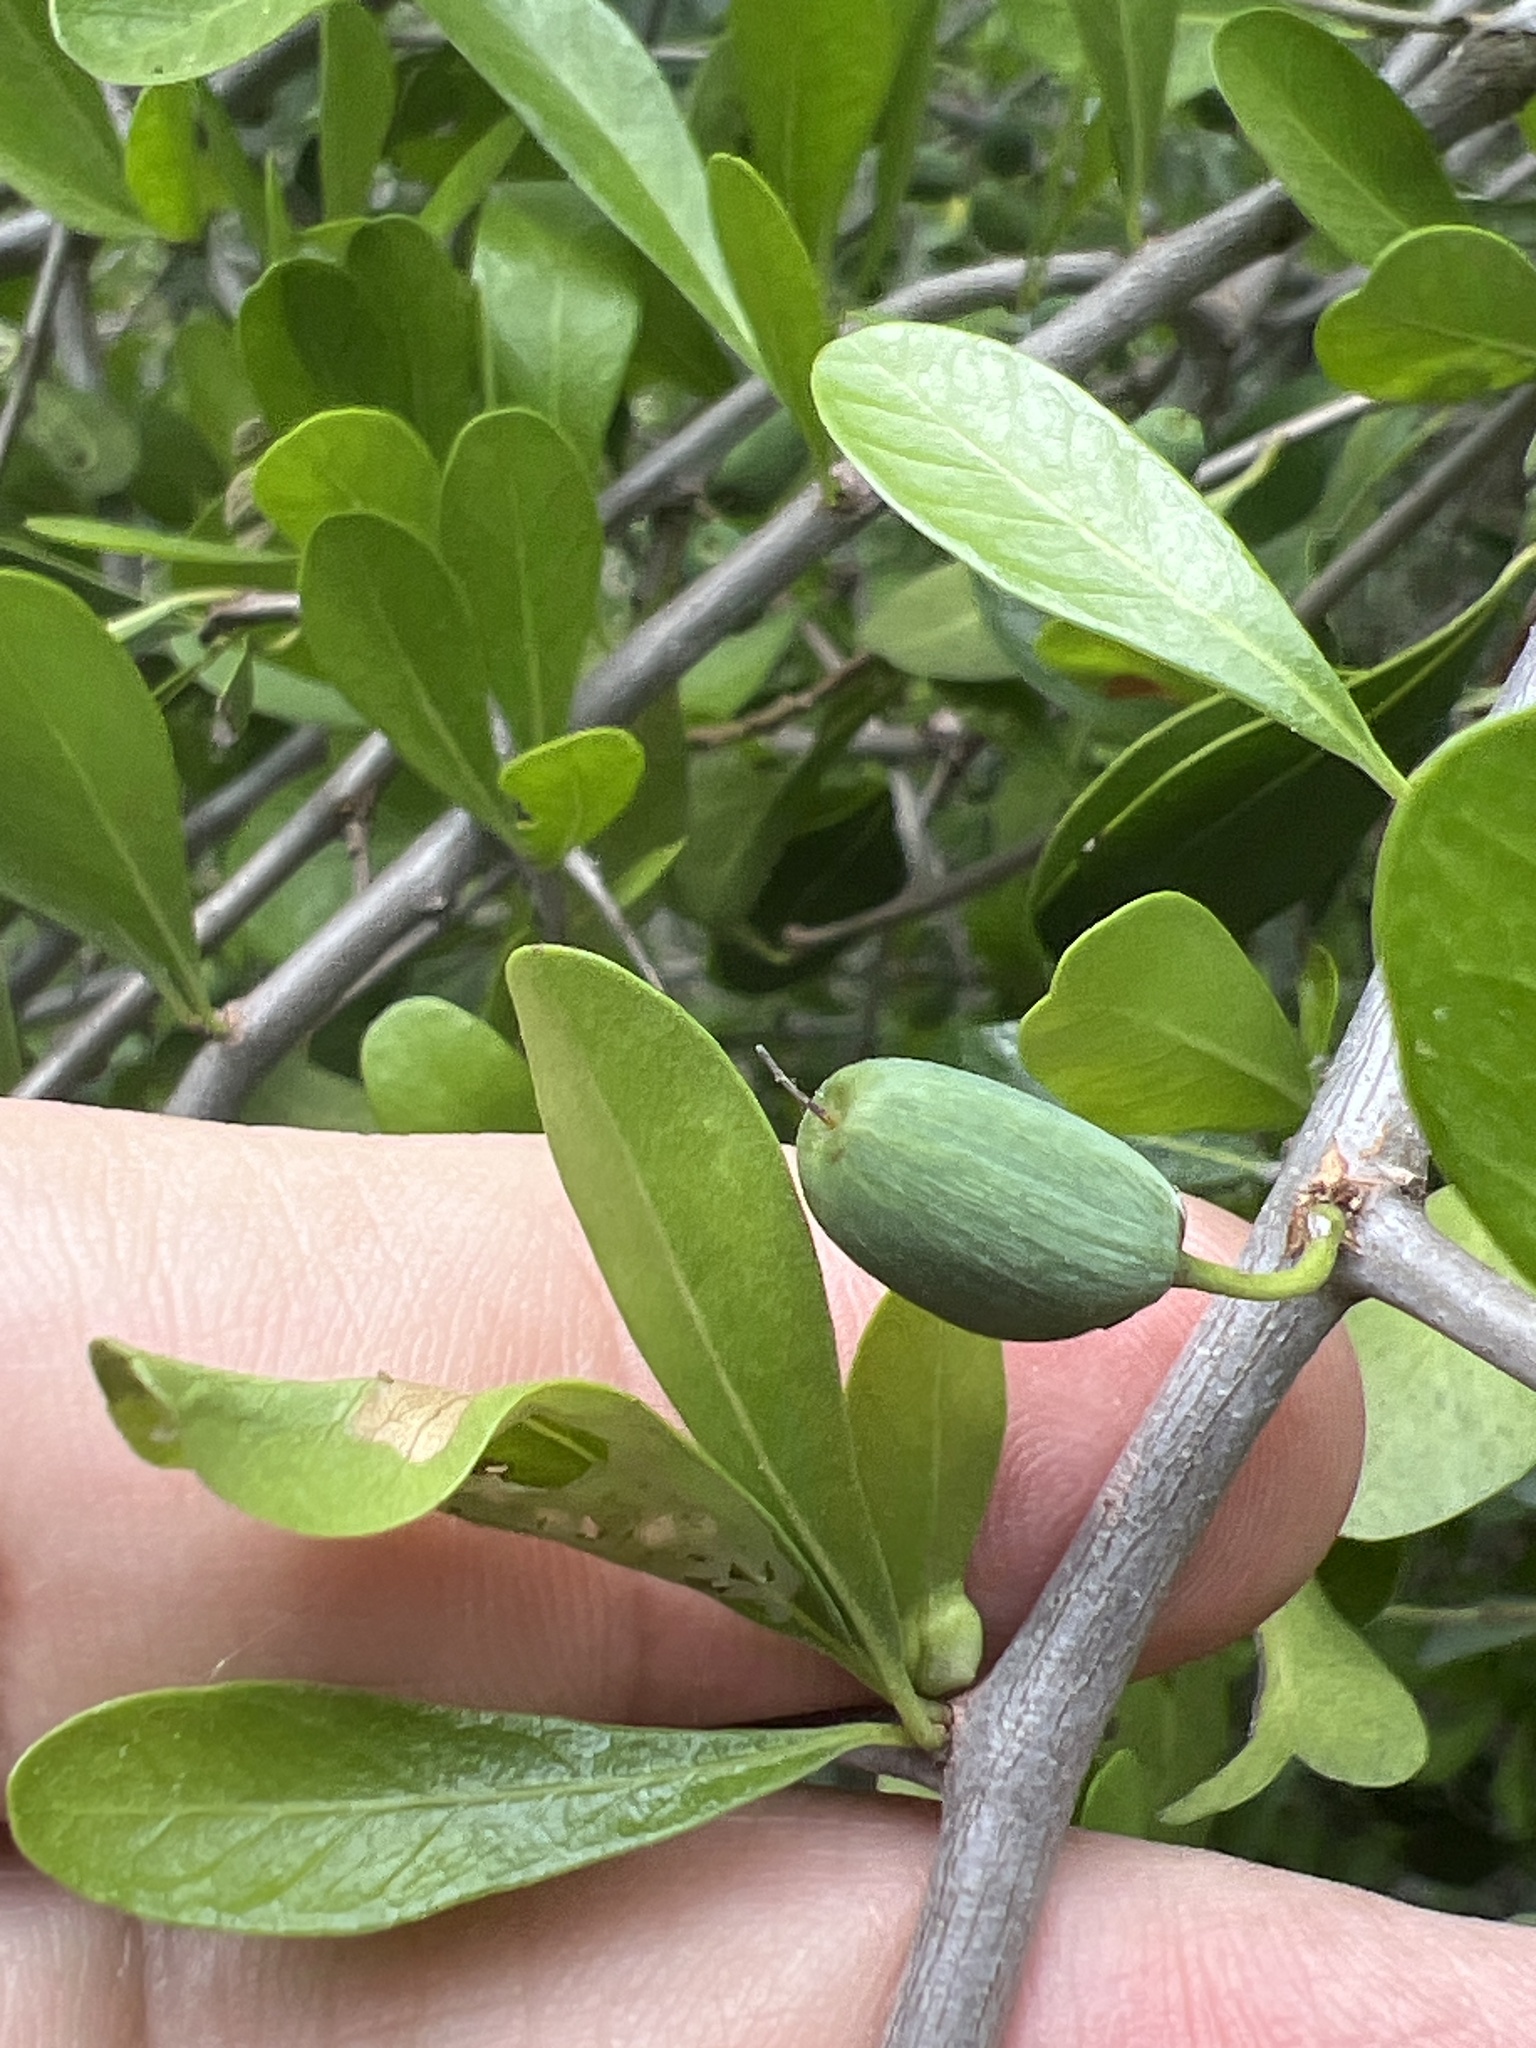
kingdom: Plantae
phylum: Tracheophyta
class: Magnoliopsida
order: Ericales
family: Sapotaceae
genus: Sideroxylon
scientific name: Sideroxylon celastrinum
